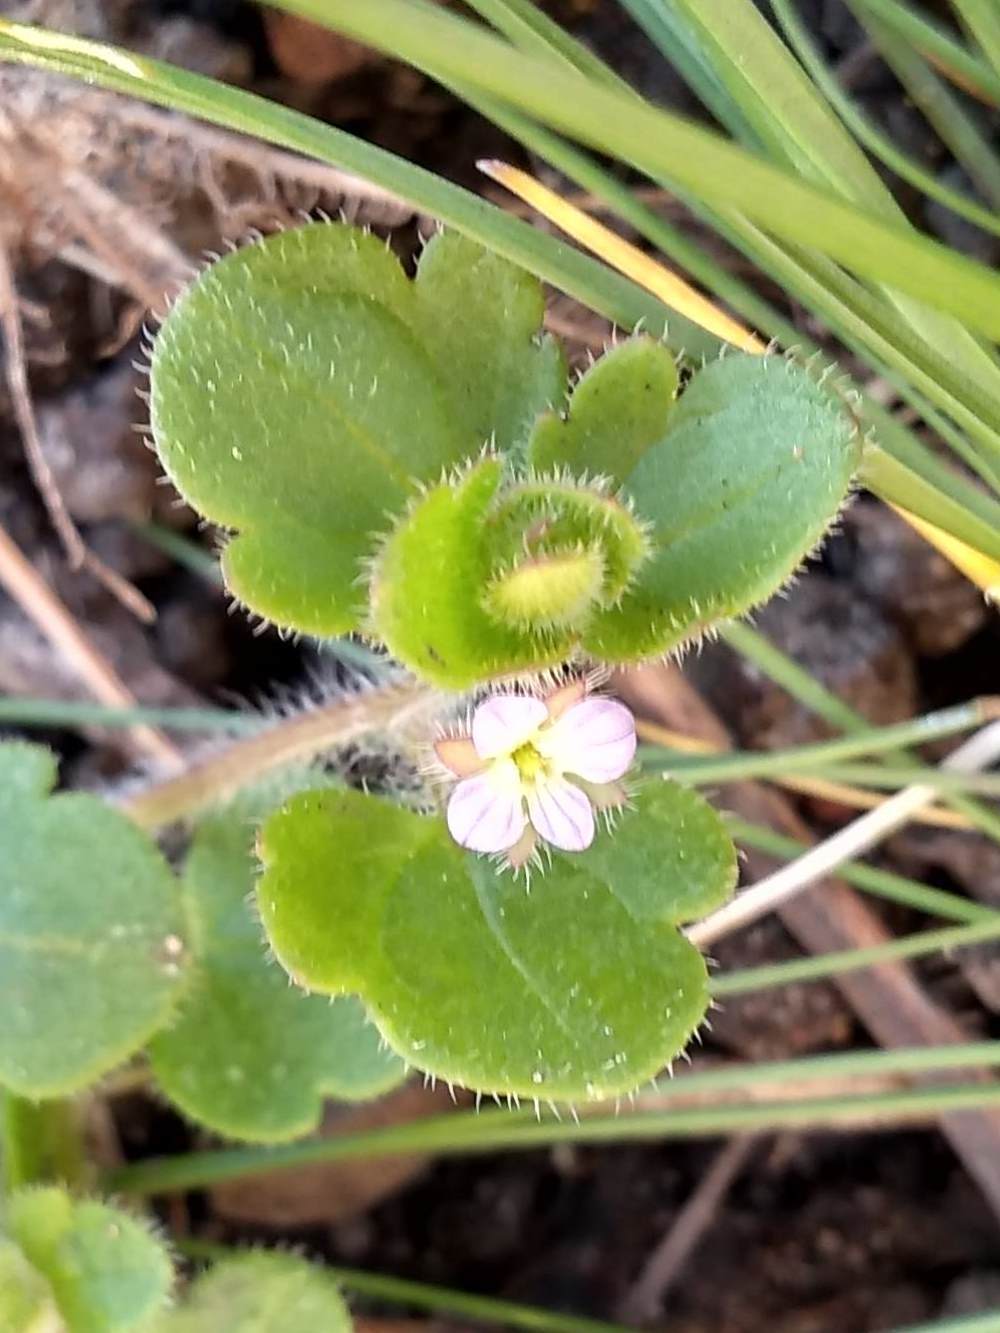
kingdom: Plantae
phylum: Tracheophyta
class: Magnoliopsida
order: Lamiales
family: Plantaginaceae
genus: Veronica
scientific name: Veronica sublobata
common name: False ivy-leaved speedwell
